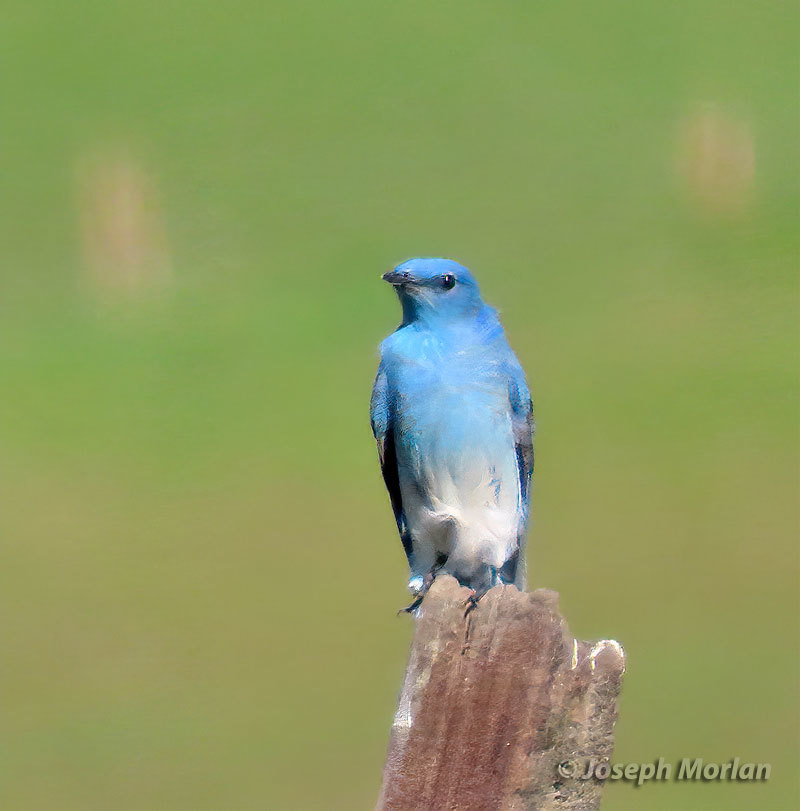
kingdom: Animalia
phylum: Chordata
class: Aves
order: Passeriformes
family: Turdidae
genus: Sialia
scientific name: Sialia currucoides
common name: Mountain bluebird
